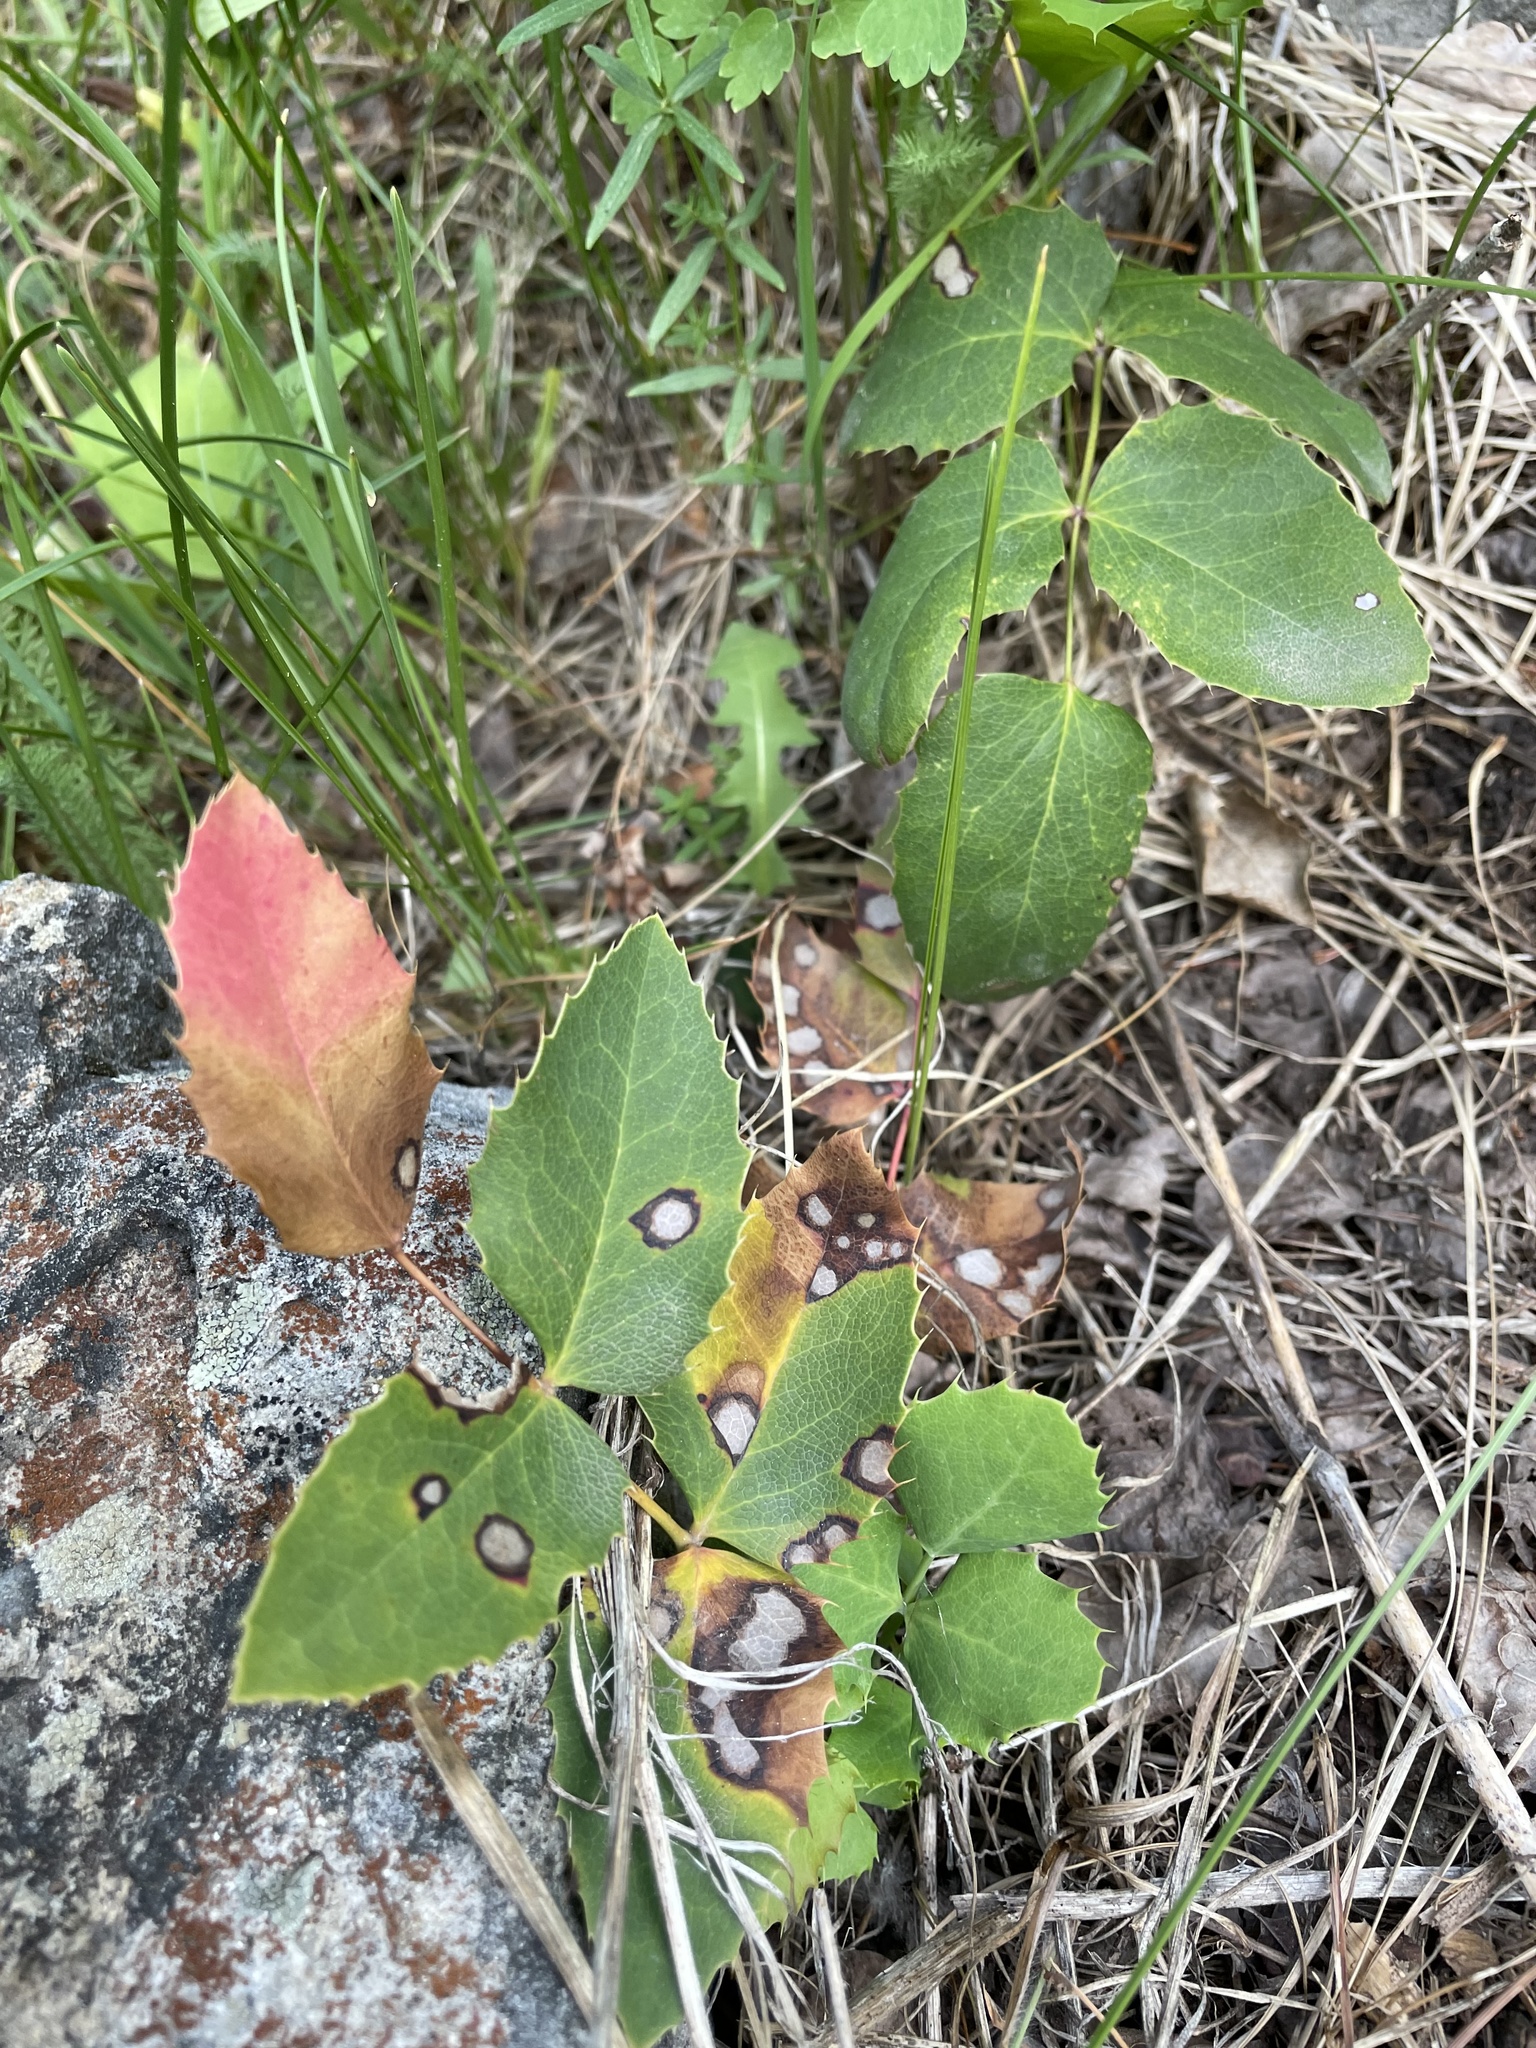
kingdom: Plantae
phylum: Tracheophyta
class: Magnoliopsida
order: Ranunculales
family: Berberidaceae
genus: Mahonia
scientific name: Mahonia repens
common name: Creeping oregon-grape
